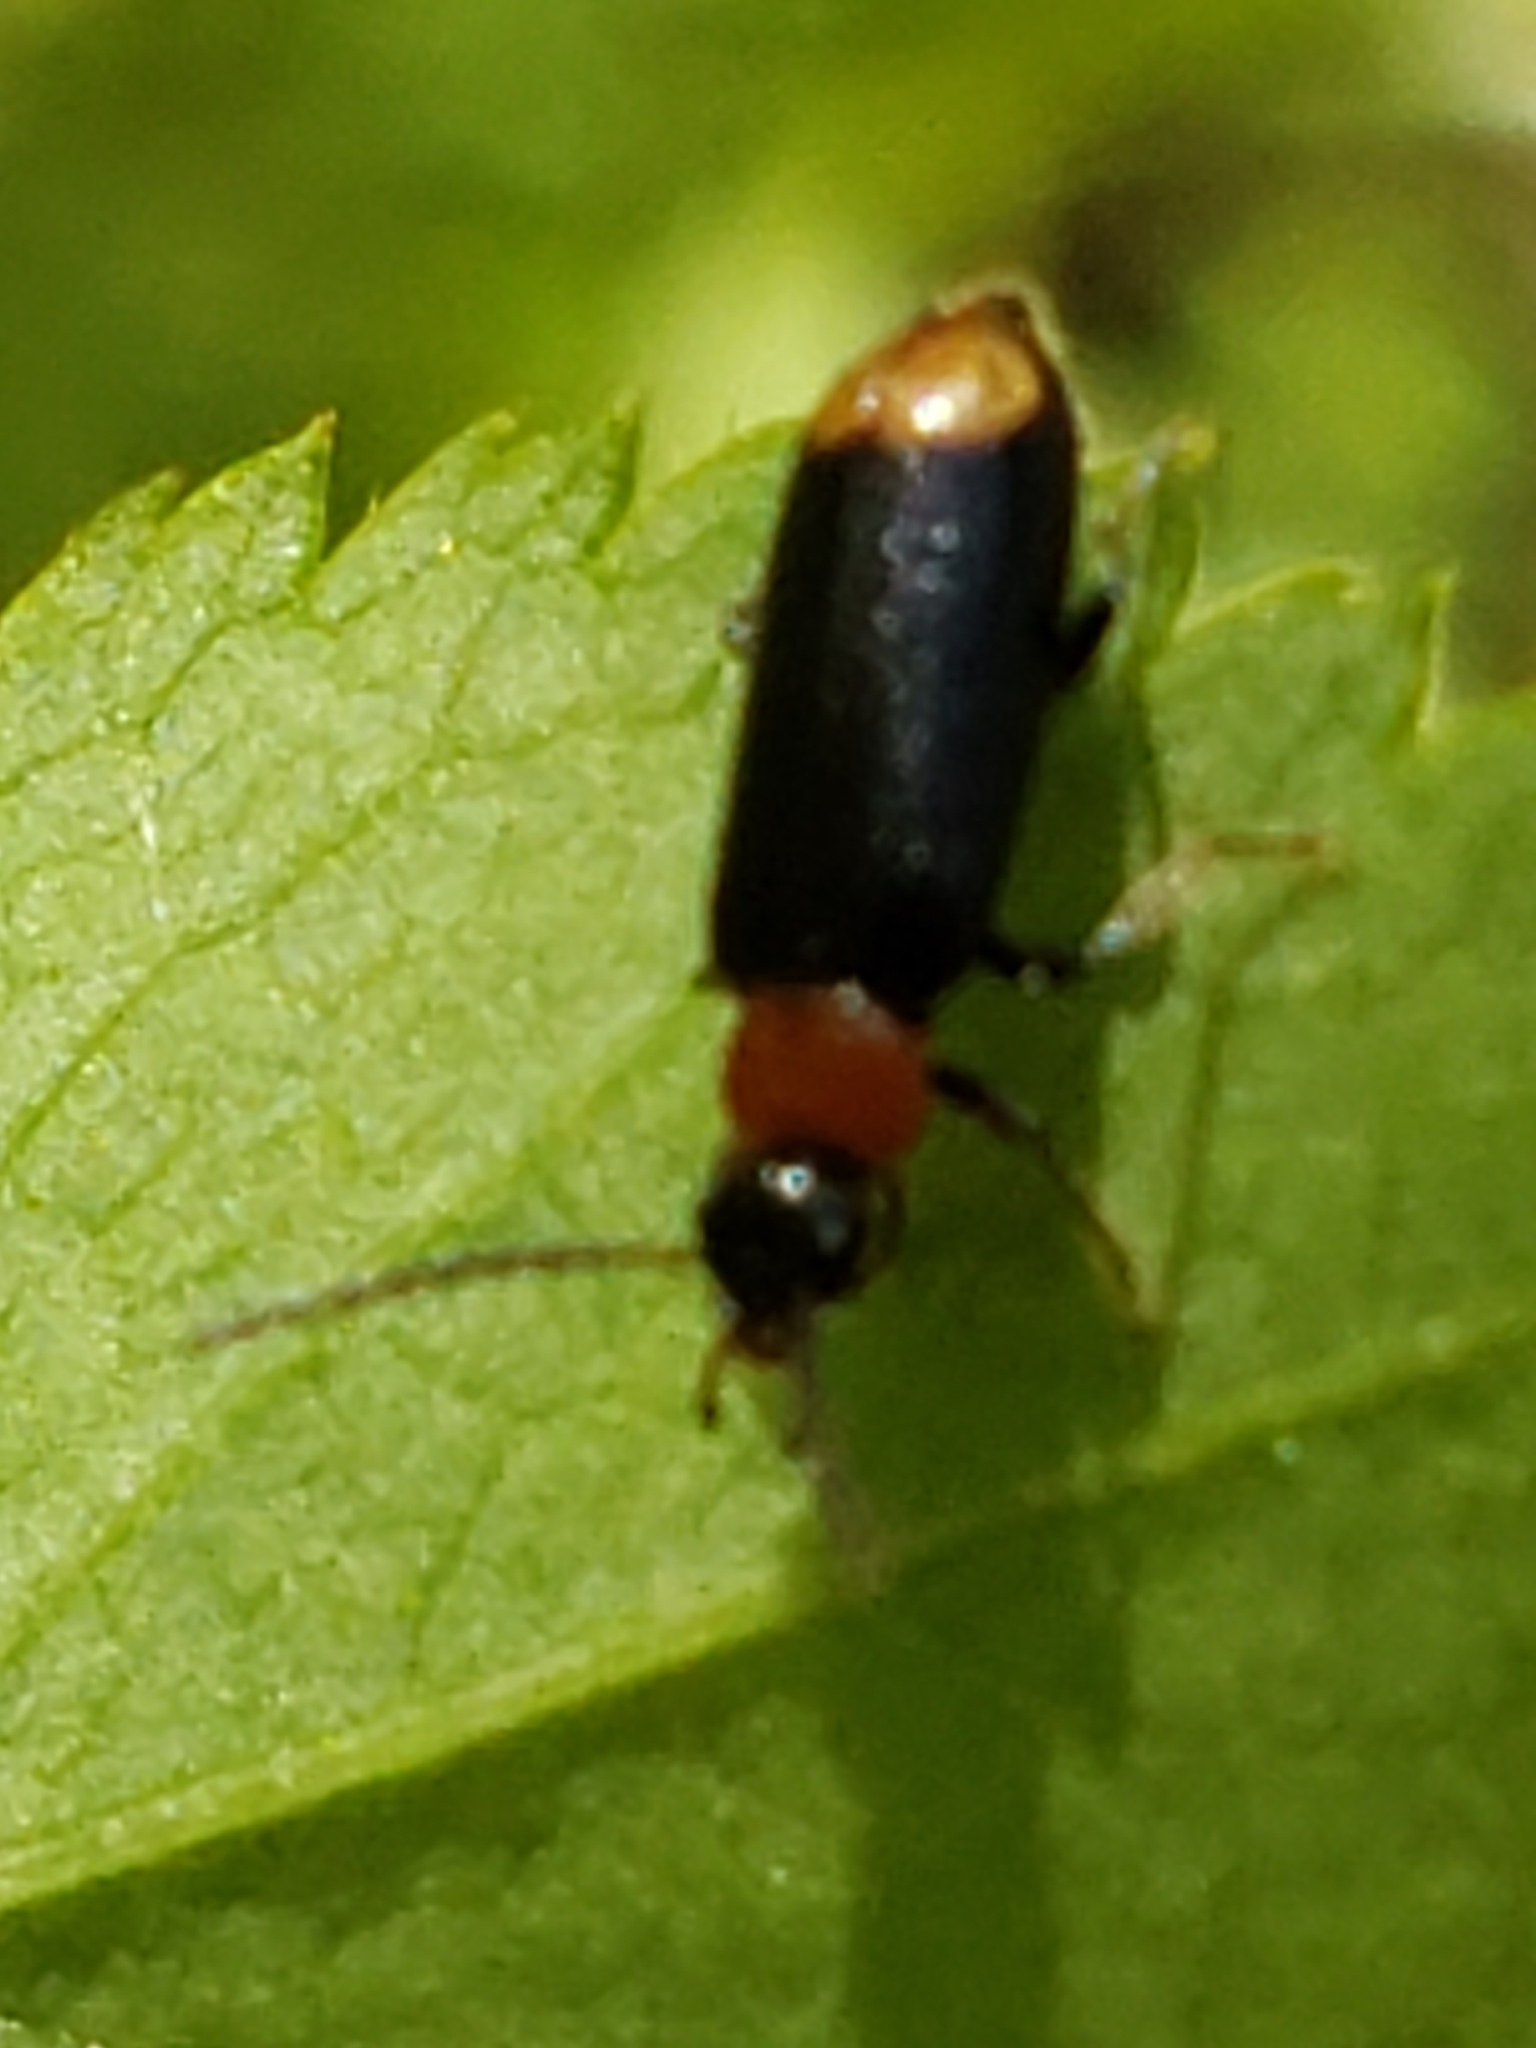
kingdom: Animalia
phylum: Arthropoda
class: Insecta
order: Coleoptera
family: Pyrochroidae
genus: Pedilus
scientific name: Pedilus terminalis
